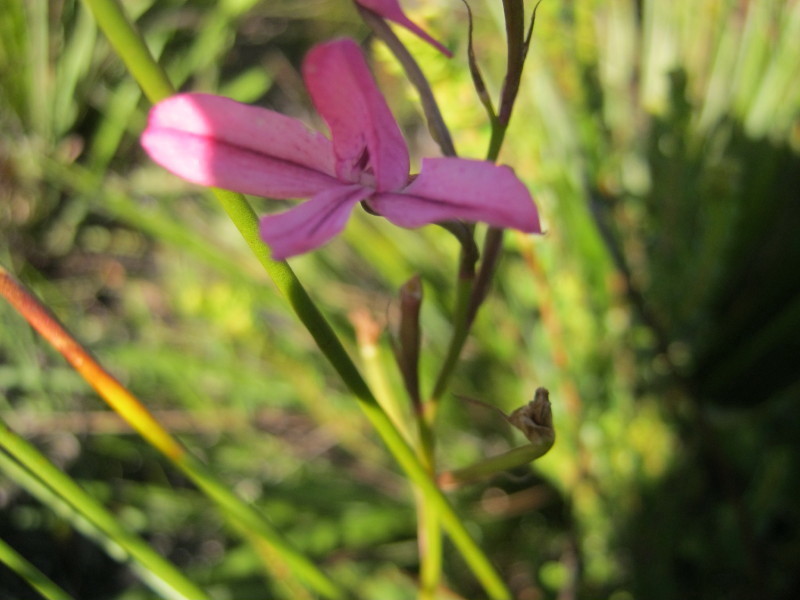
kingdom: Plantae
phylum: Tracheophyta
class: Liliopsida
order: Asparagales
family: Orchidaceae
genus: Disa
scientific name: Disa gladioliflora
